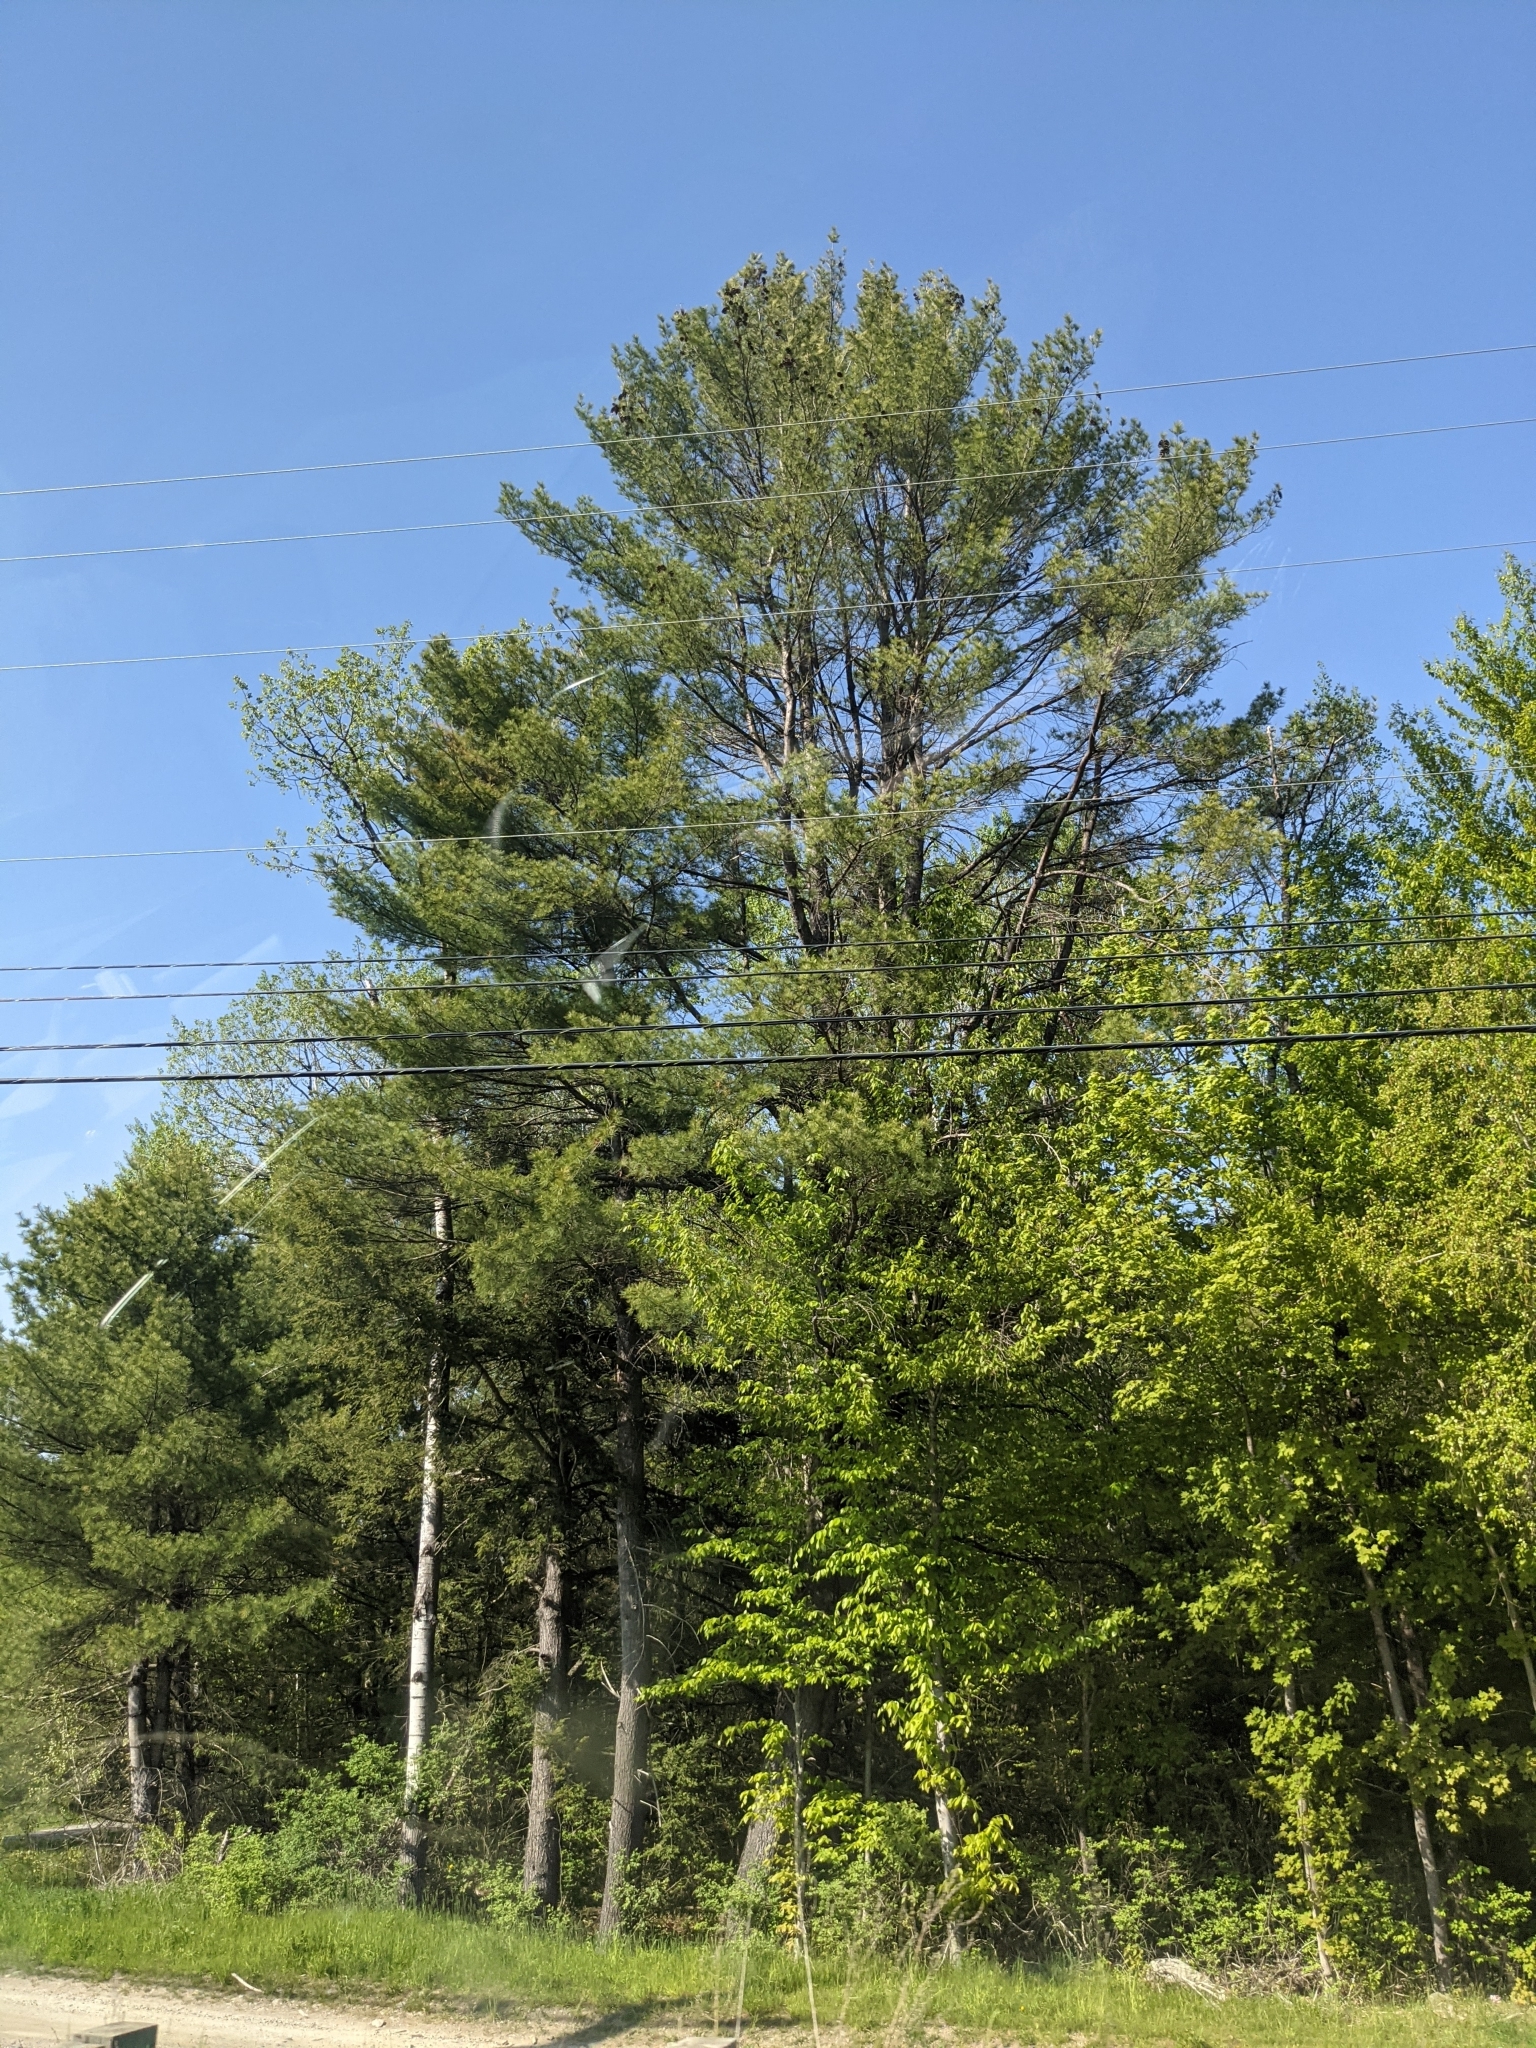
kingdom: Plantae
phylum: Tracheophyta
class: Pinopsida
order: Pinales
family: Pinaceae
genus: Pinus
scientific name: Pinus strobus
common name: Weymouth pine
